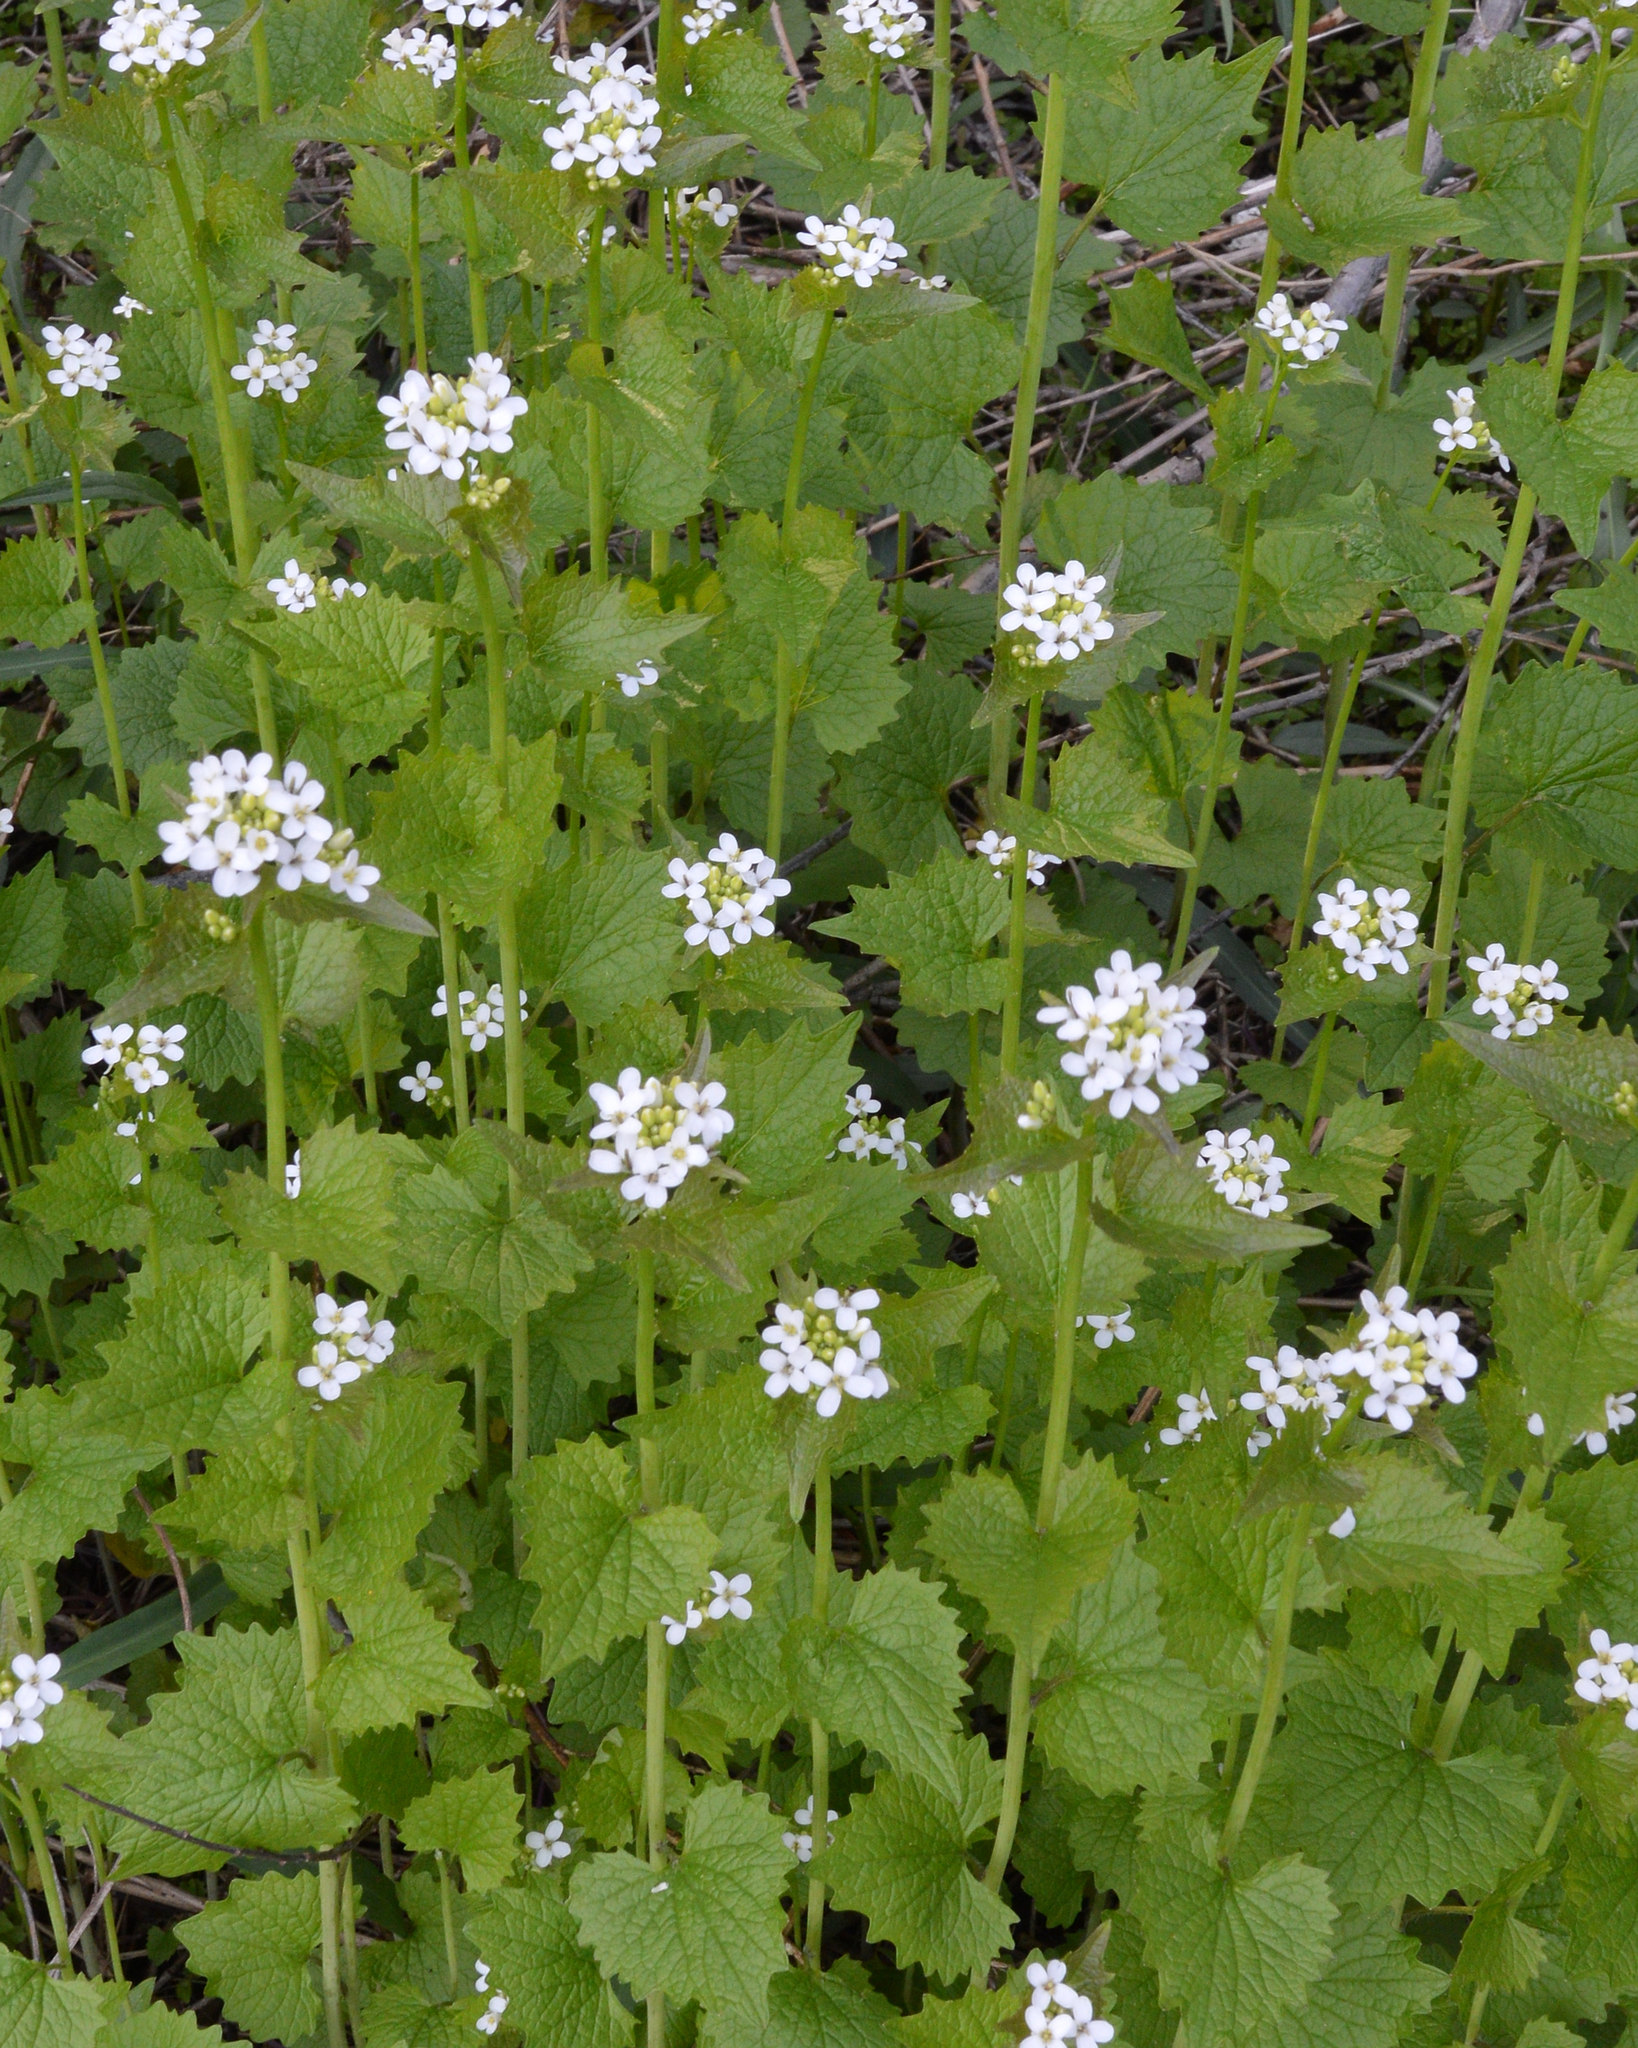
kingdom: Plantae
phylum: Tracheophyta
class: Magnoliopsida
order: Brassicales
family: Brassicaceae
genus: Alliaria
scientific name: Alliaria petiolata
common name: Garlic mustard
